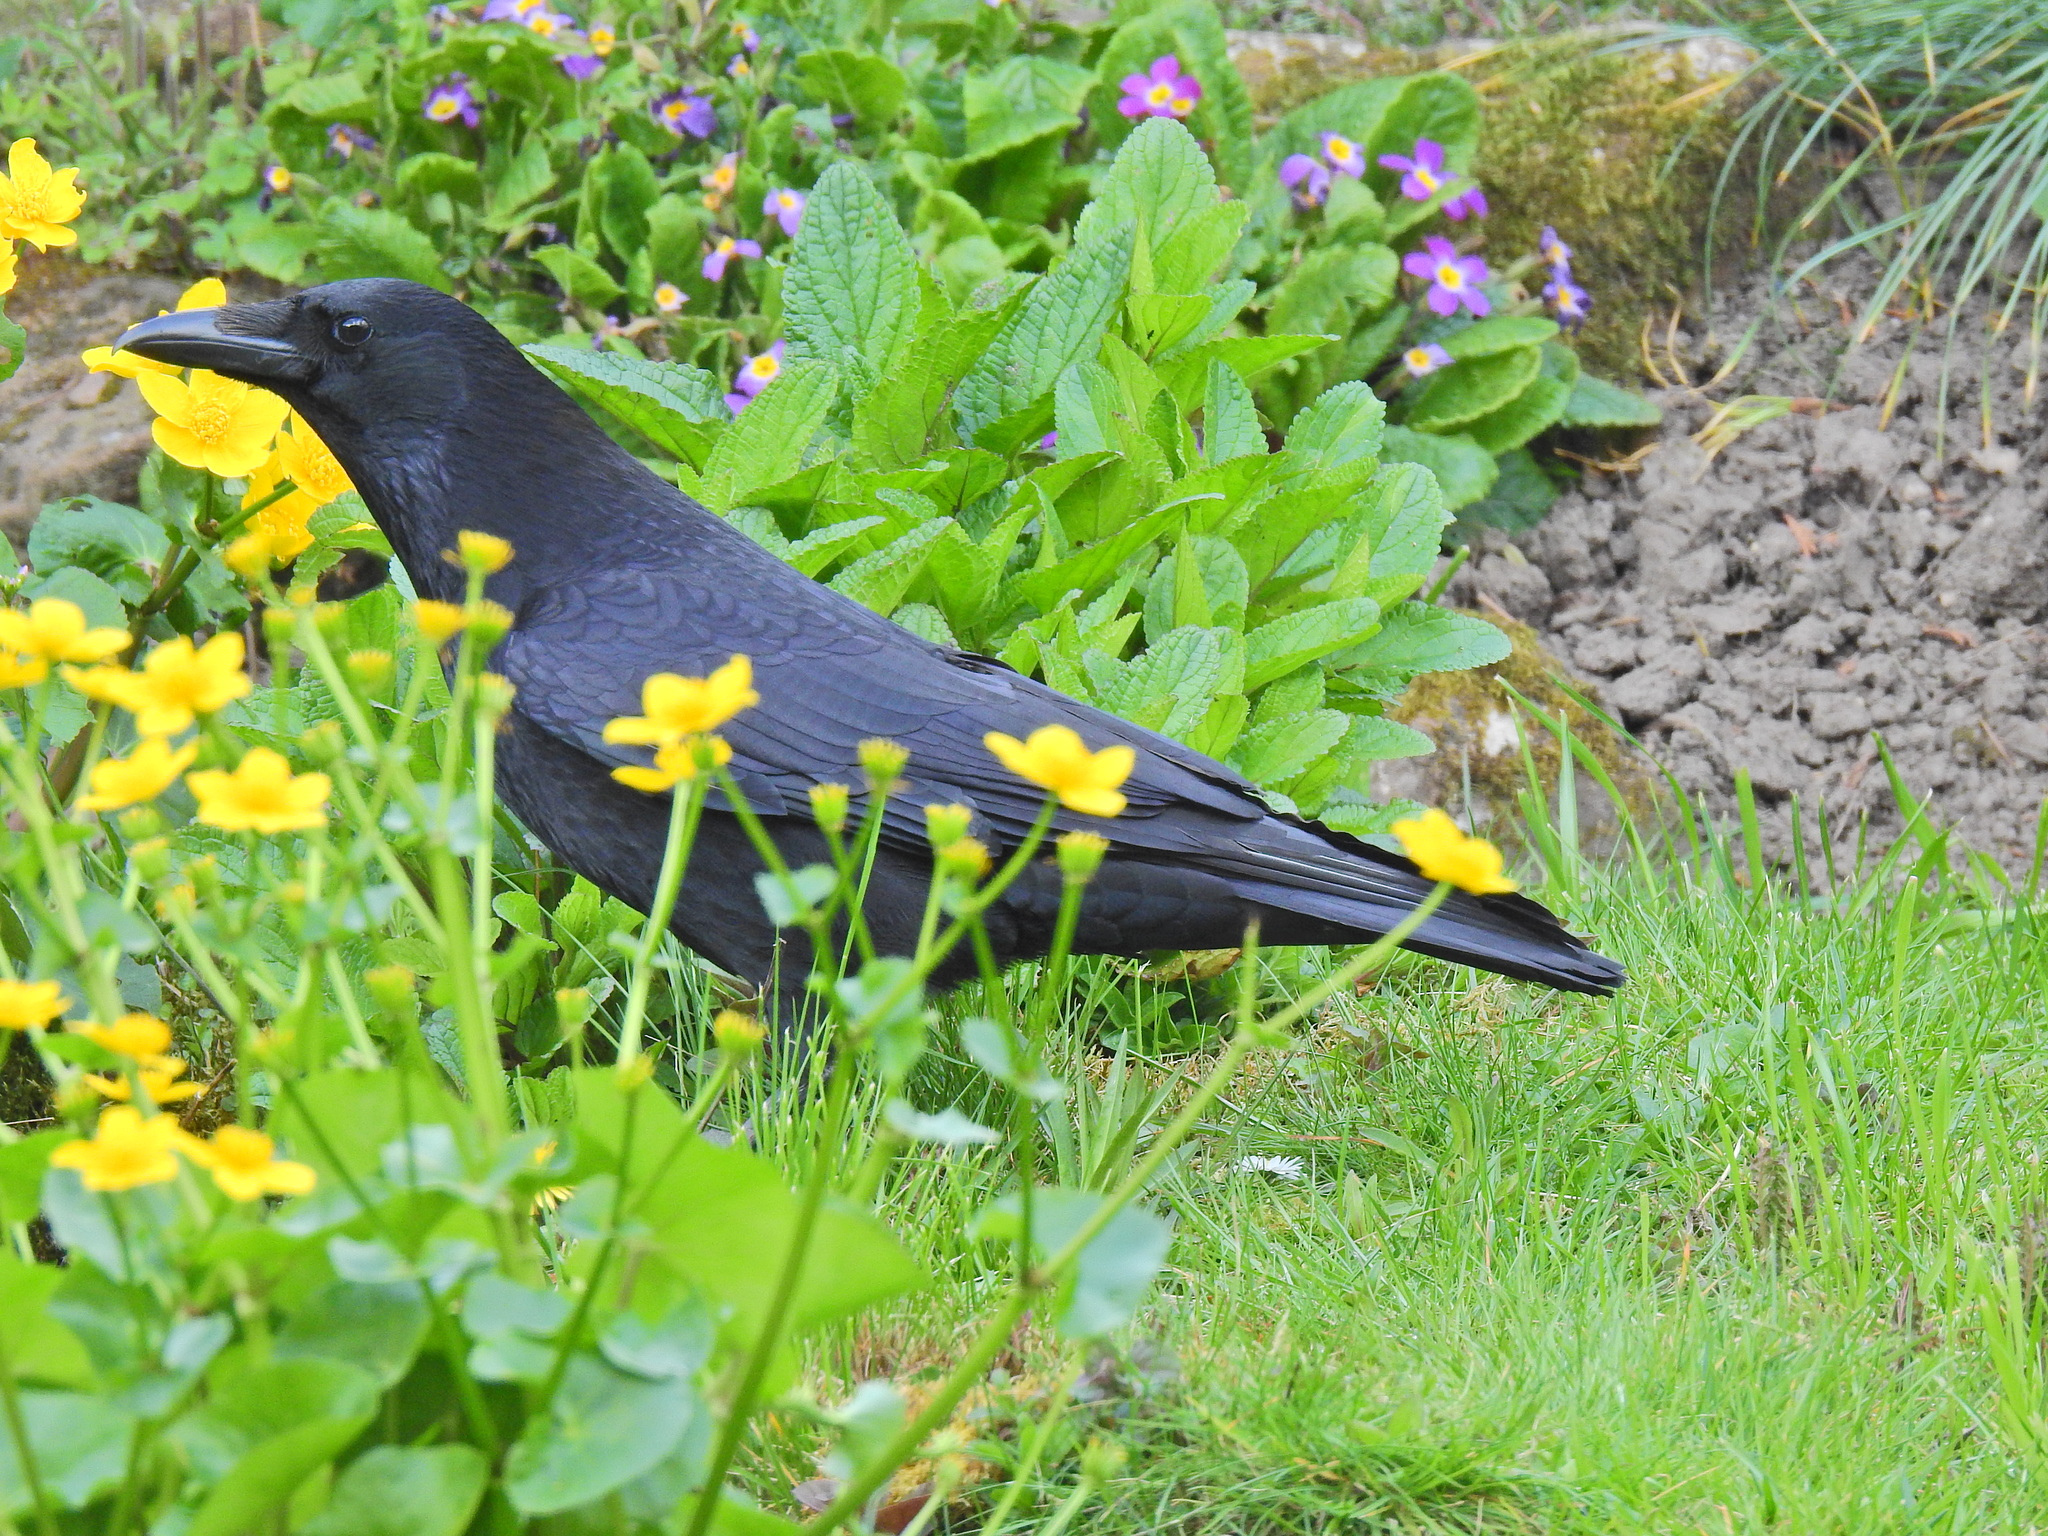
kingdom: Animalia
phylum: Chordata
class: Aves
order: Passeriformes
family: Corvidae
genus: Corvus
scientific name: Corvus corone
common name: Carrion crow
